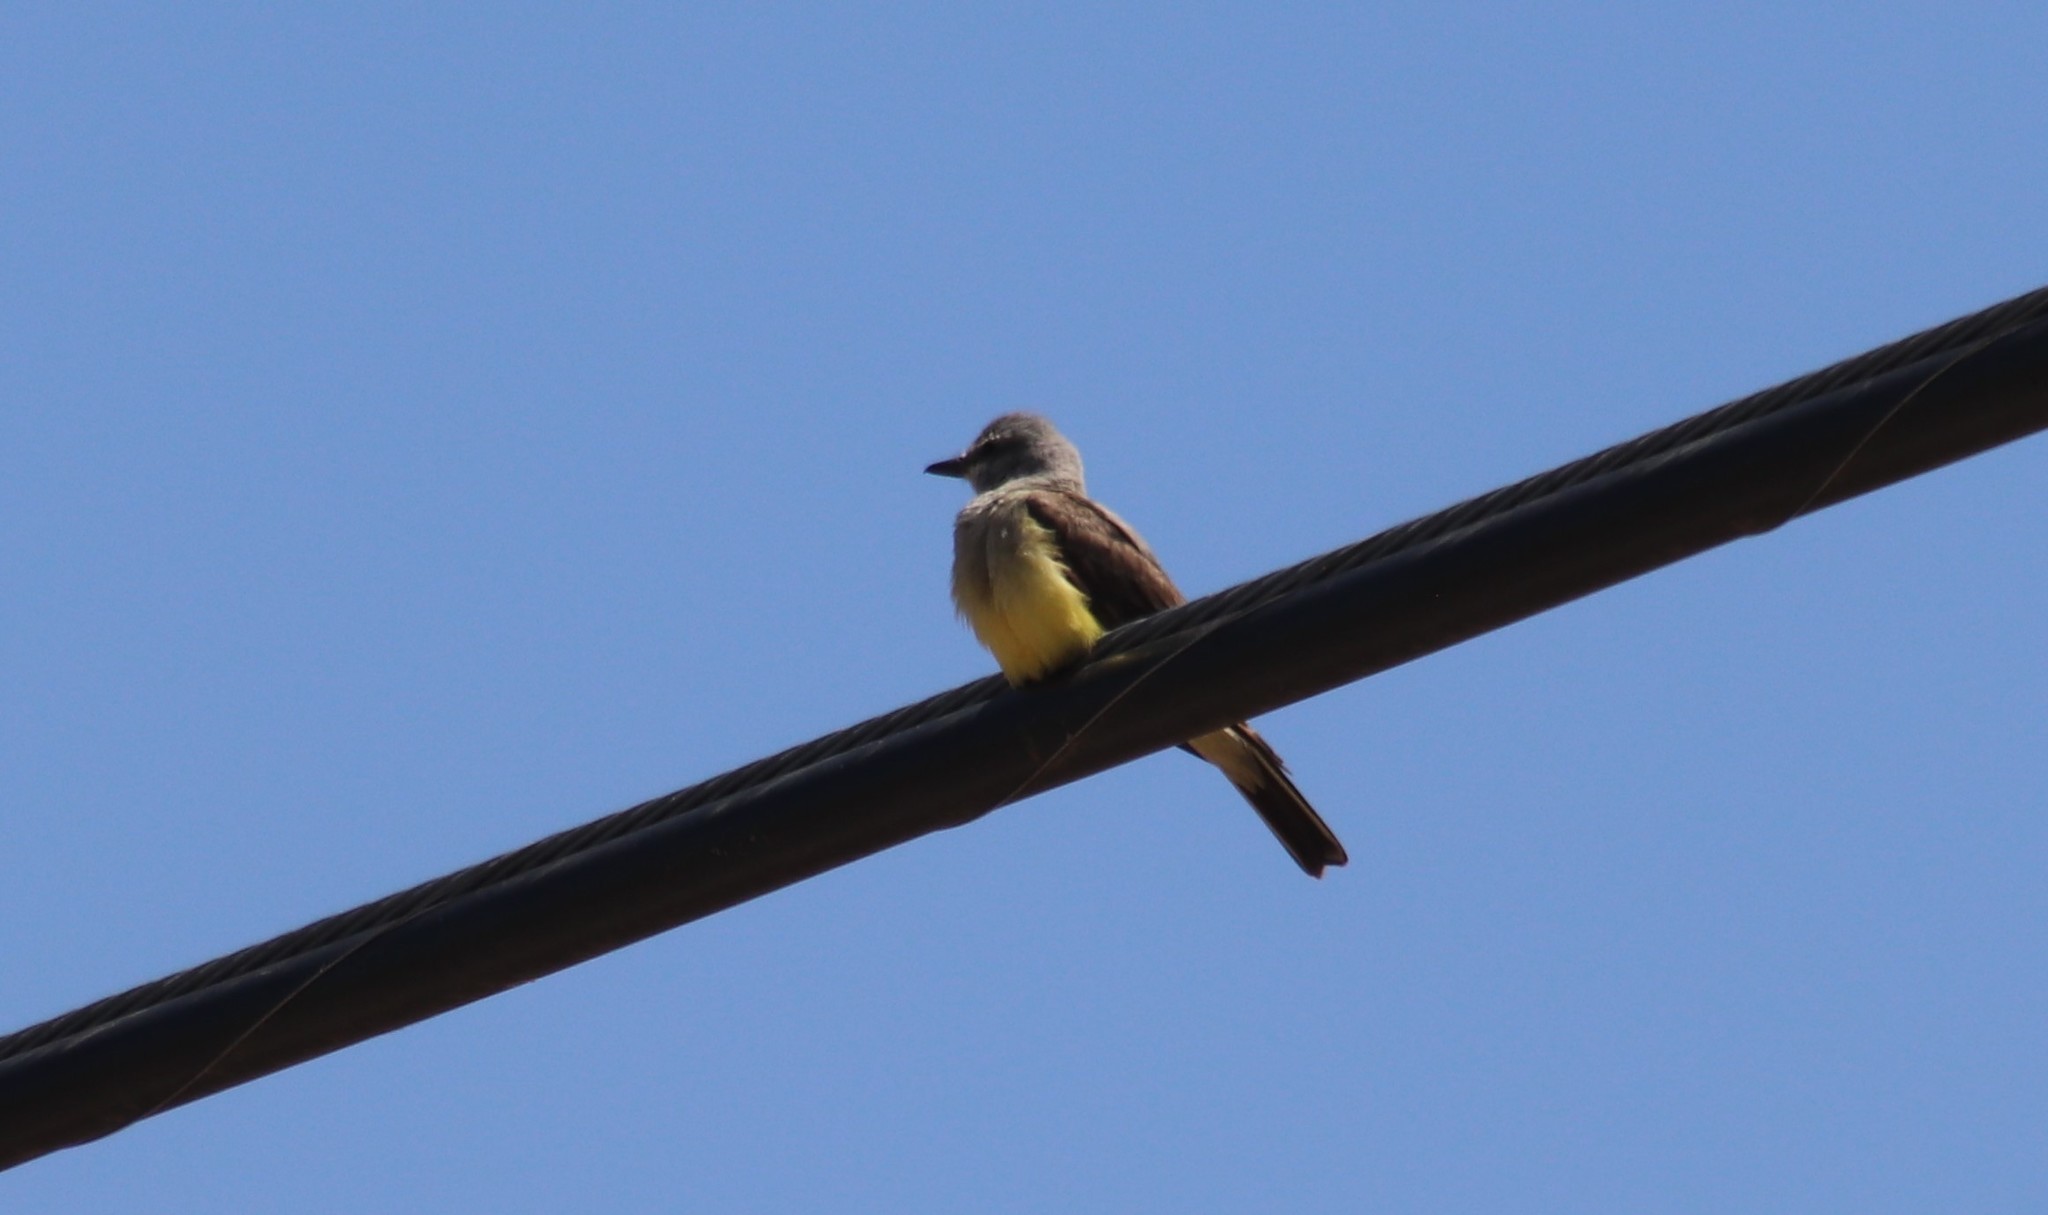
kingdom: Animalia
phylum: Chordata
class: Aves
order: Passeriformes
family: Tyrannidae
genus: Tyrannus
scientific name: Tyrannus verticalis
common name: Western kingbird
